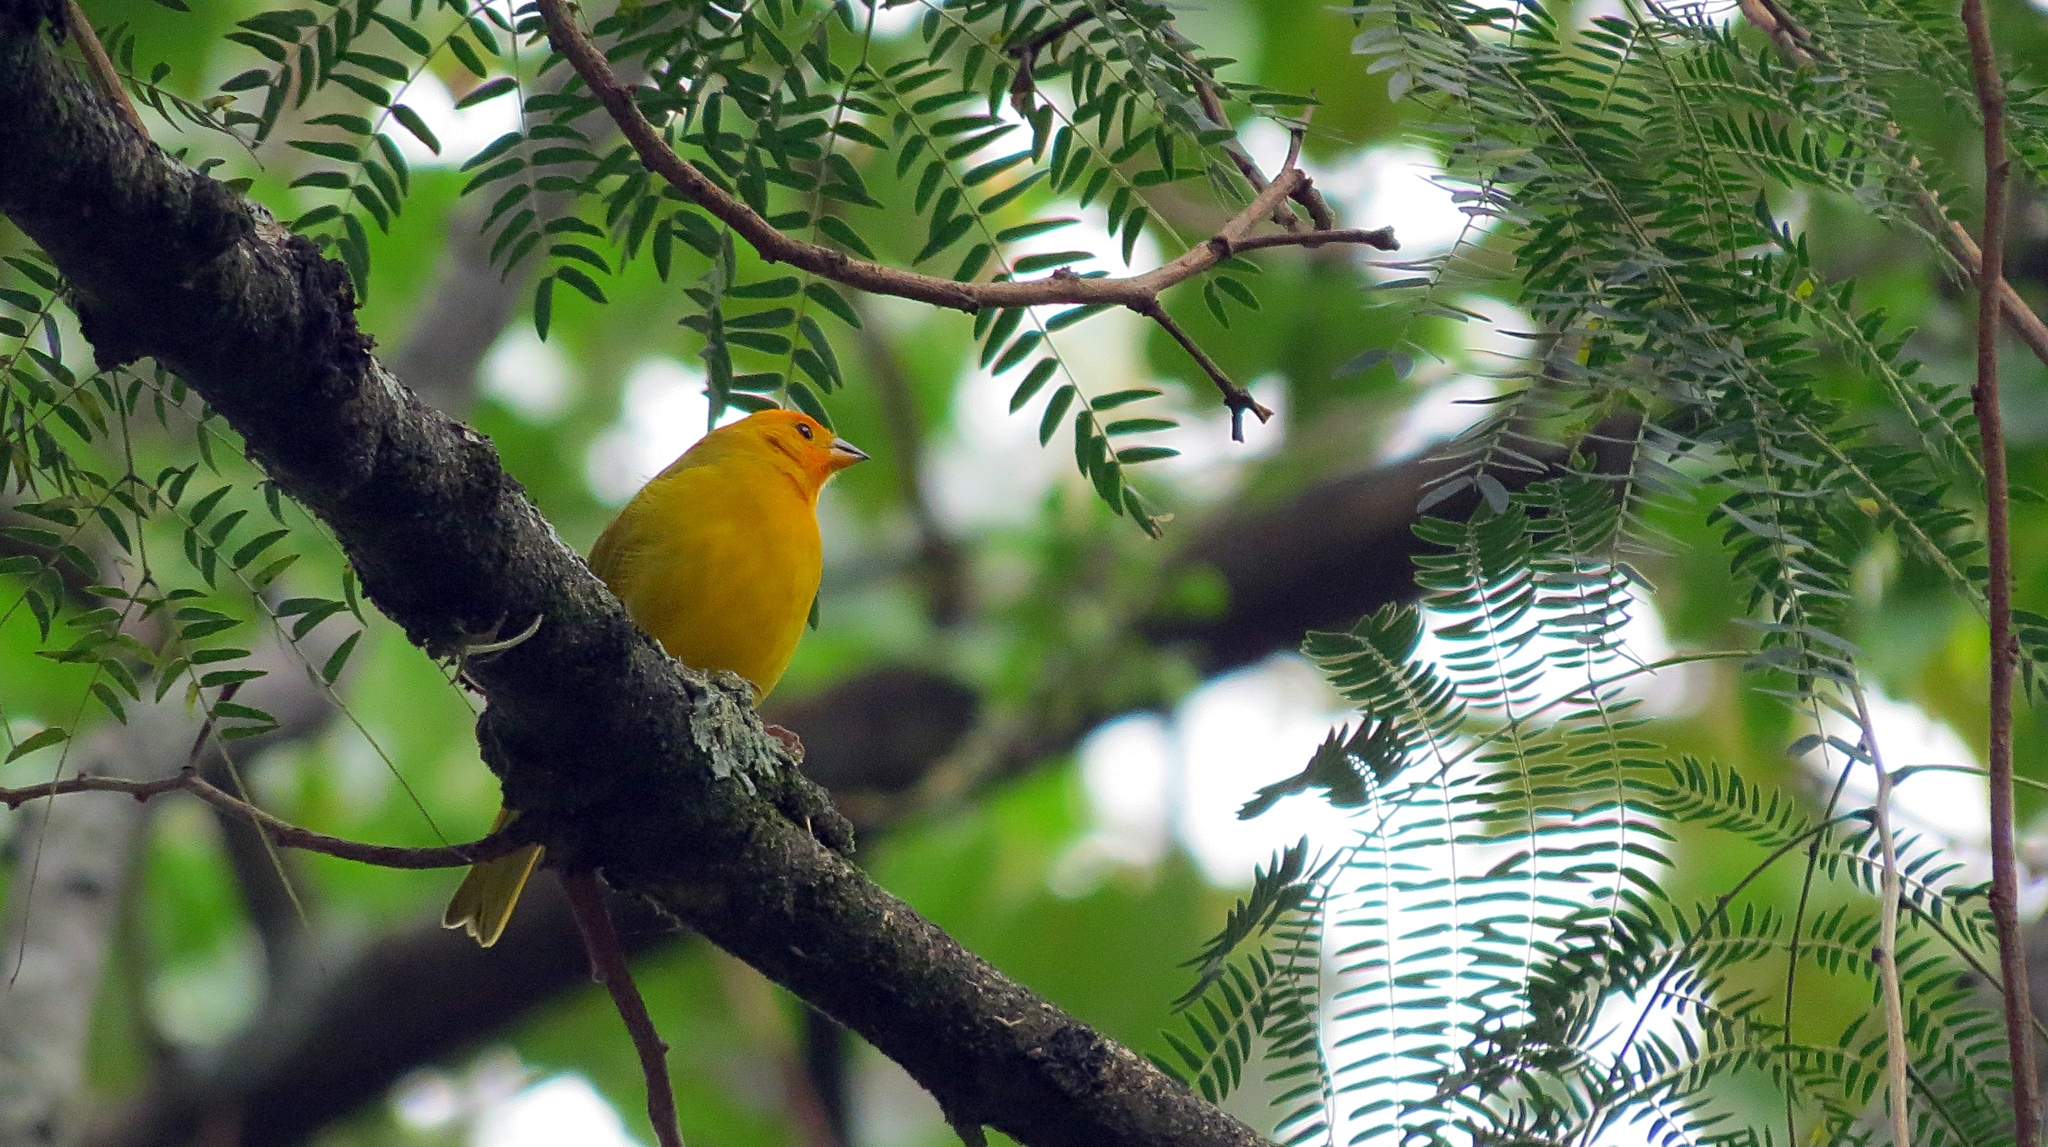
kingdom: Animalia
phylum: Chordata
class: Aves
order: Passeriformes
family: Thraupidae
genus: Sicalis
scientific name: Sicalis flaveola
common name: Saffron finch
